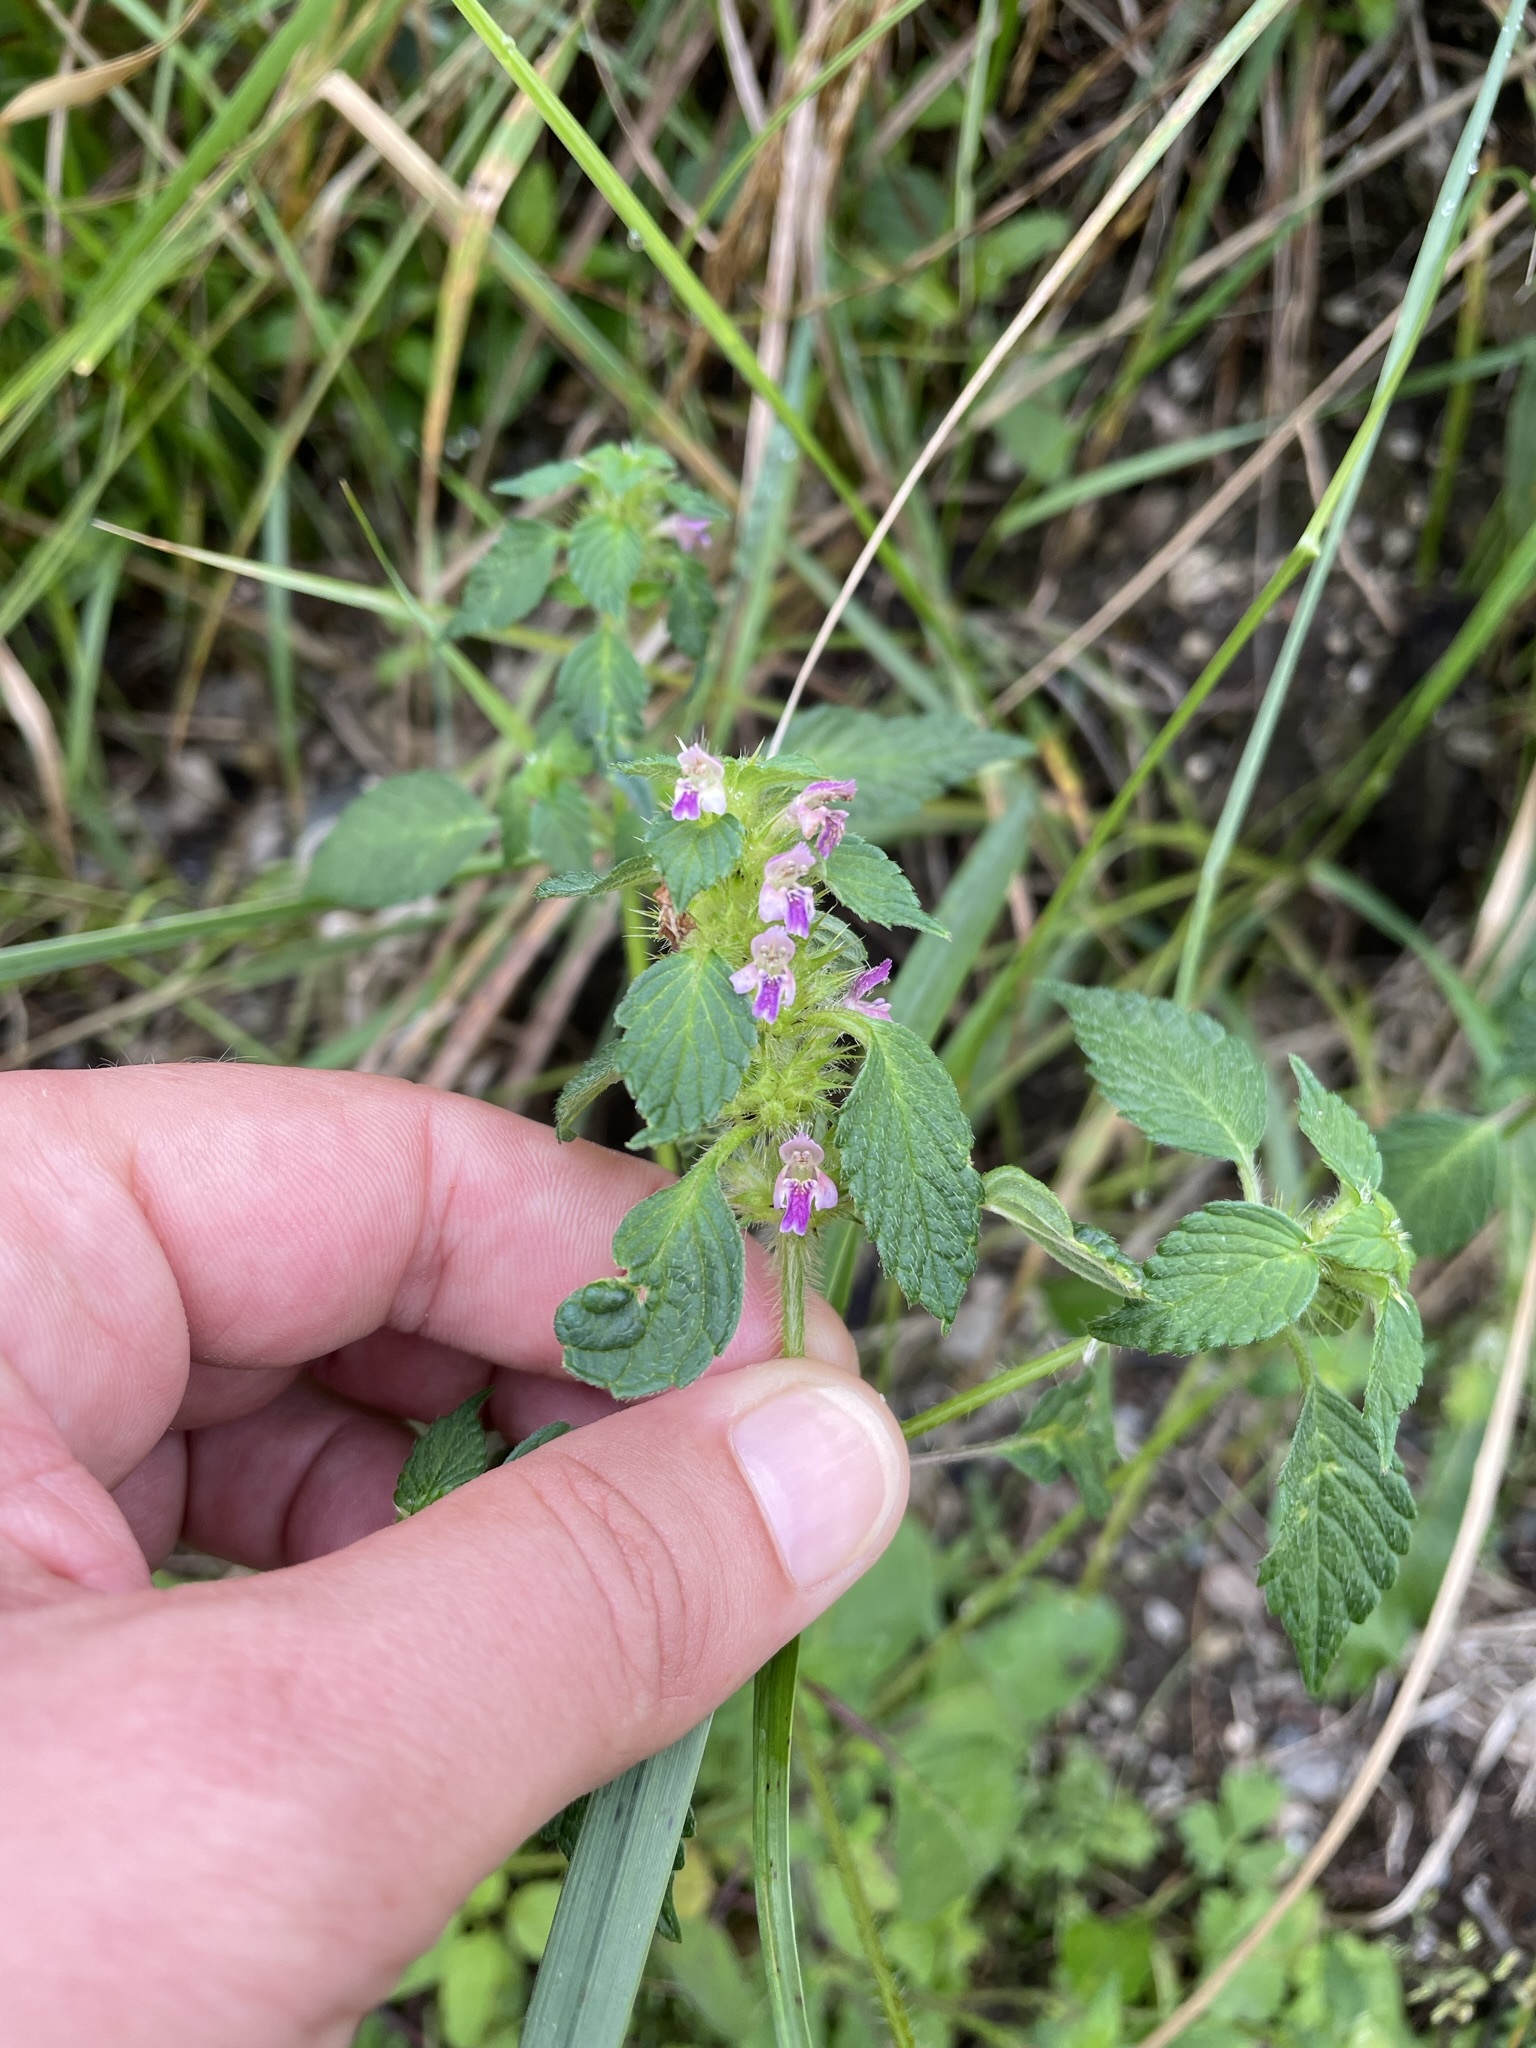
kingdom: Plantae
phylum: Tracheophyta
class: Magnoliopsida
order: Lamiales
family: Lamiaceae
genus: Galeopsis
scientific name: Galeopsis bifida
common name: Bifid hemp-nettle
